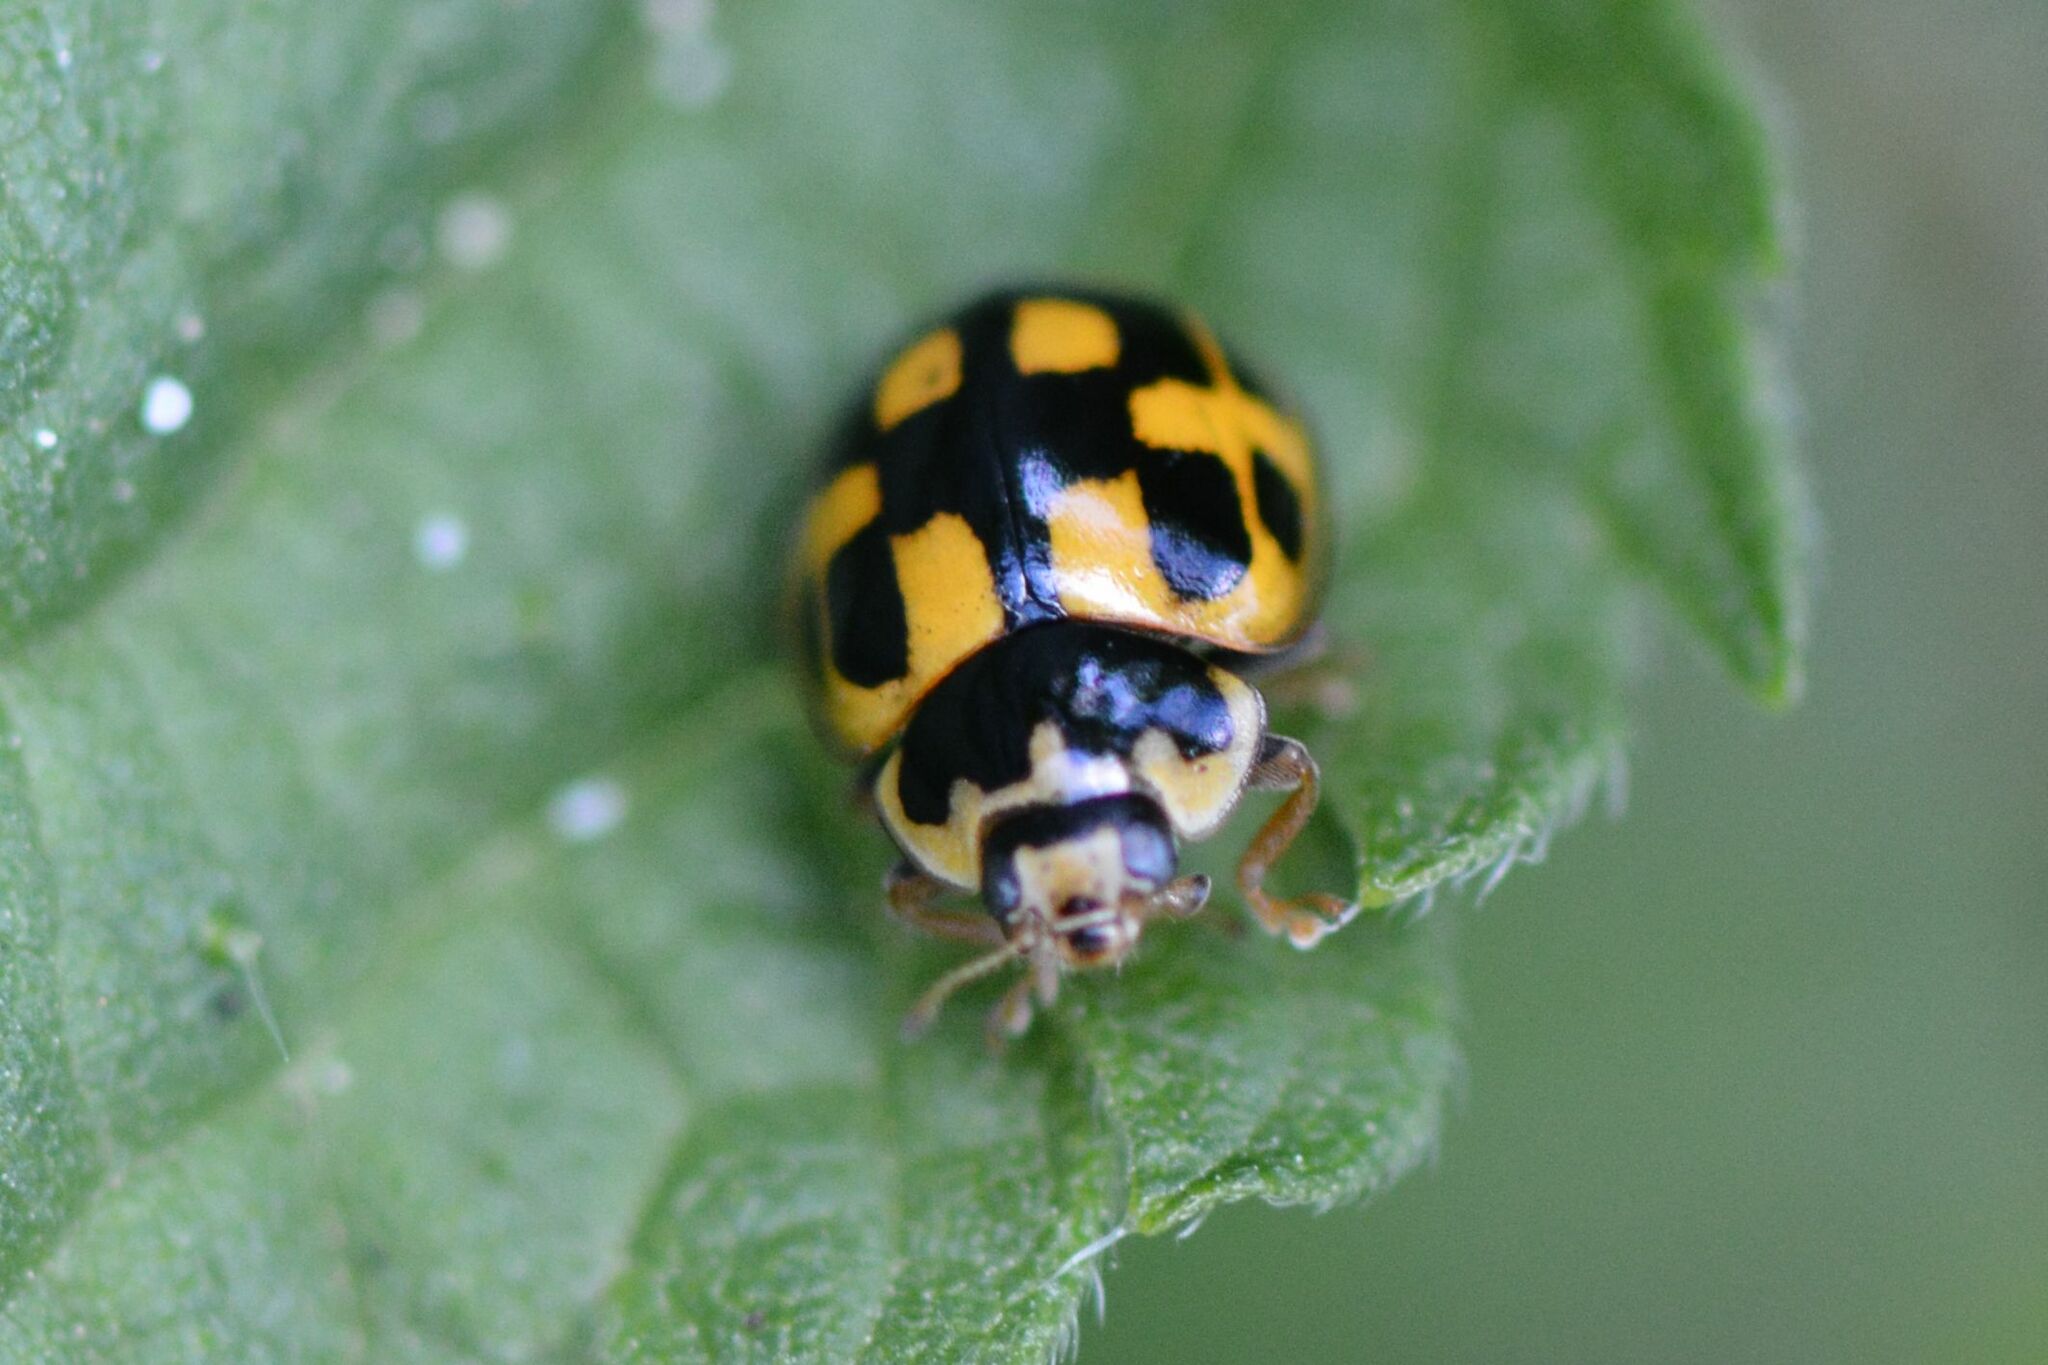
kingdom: Animalia
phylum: Arthropoda
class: Insecta
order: Coleoptera
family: Coccinellidae
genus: Propylaea
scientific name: Propylaea quatuordecimpunctata
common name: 14-spotted ladybird beetle
